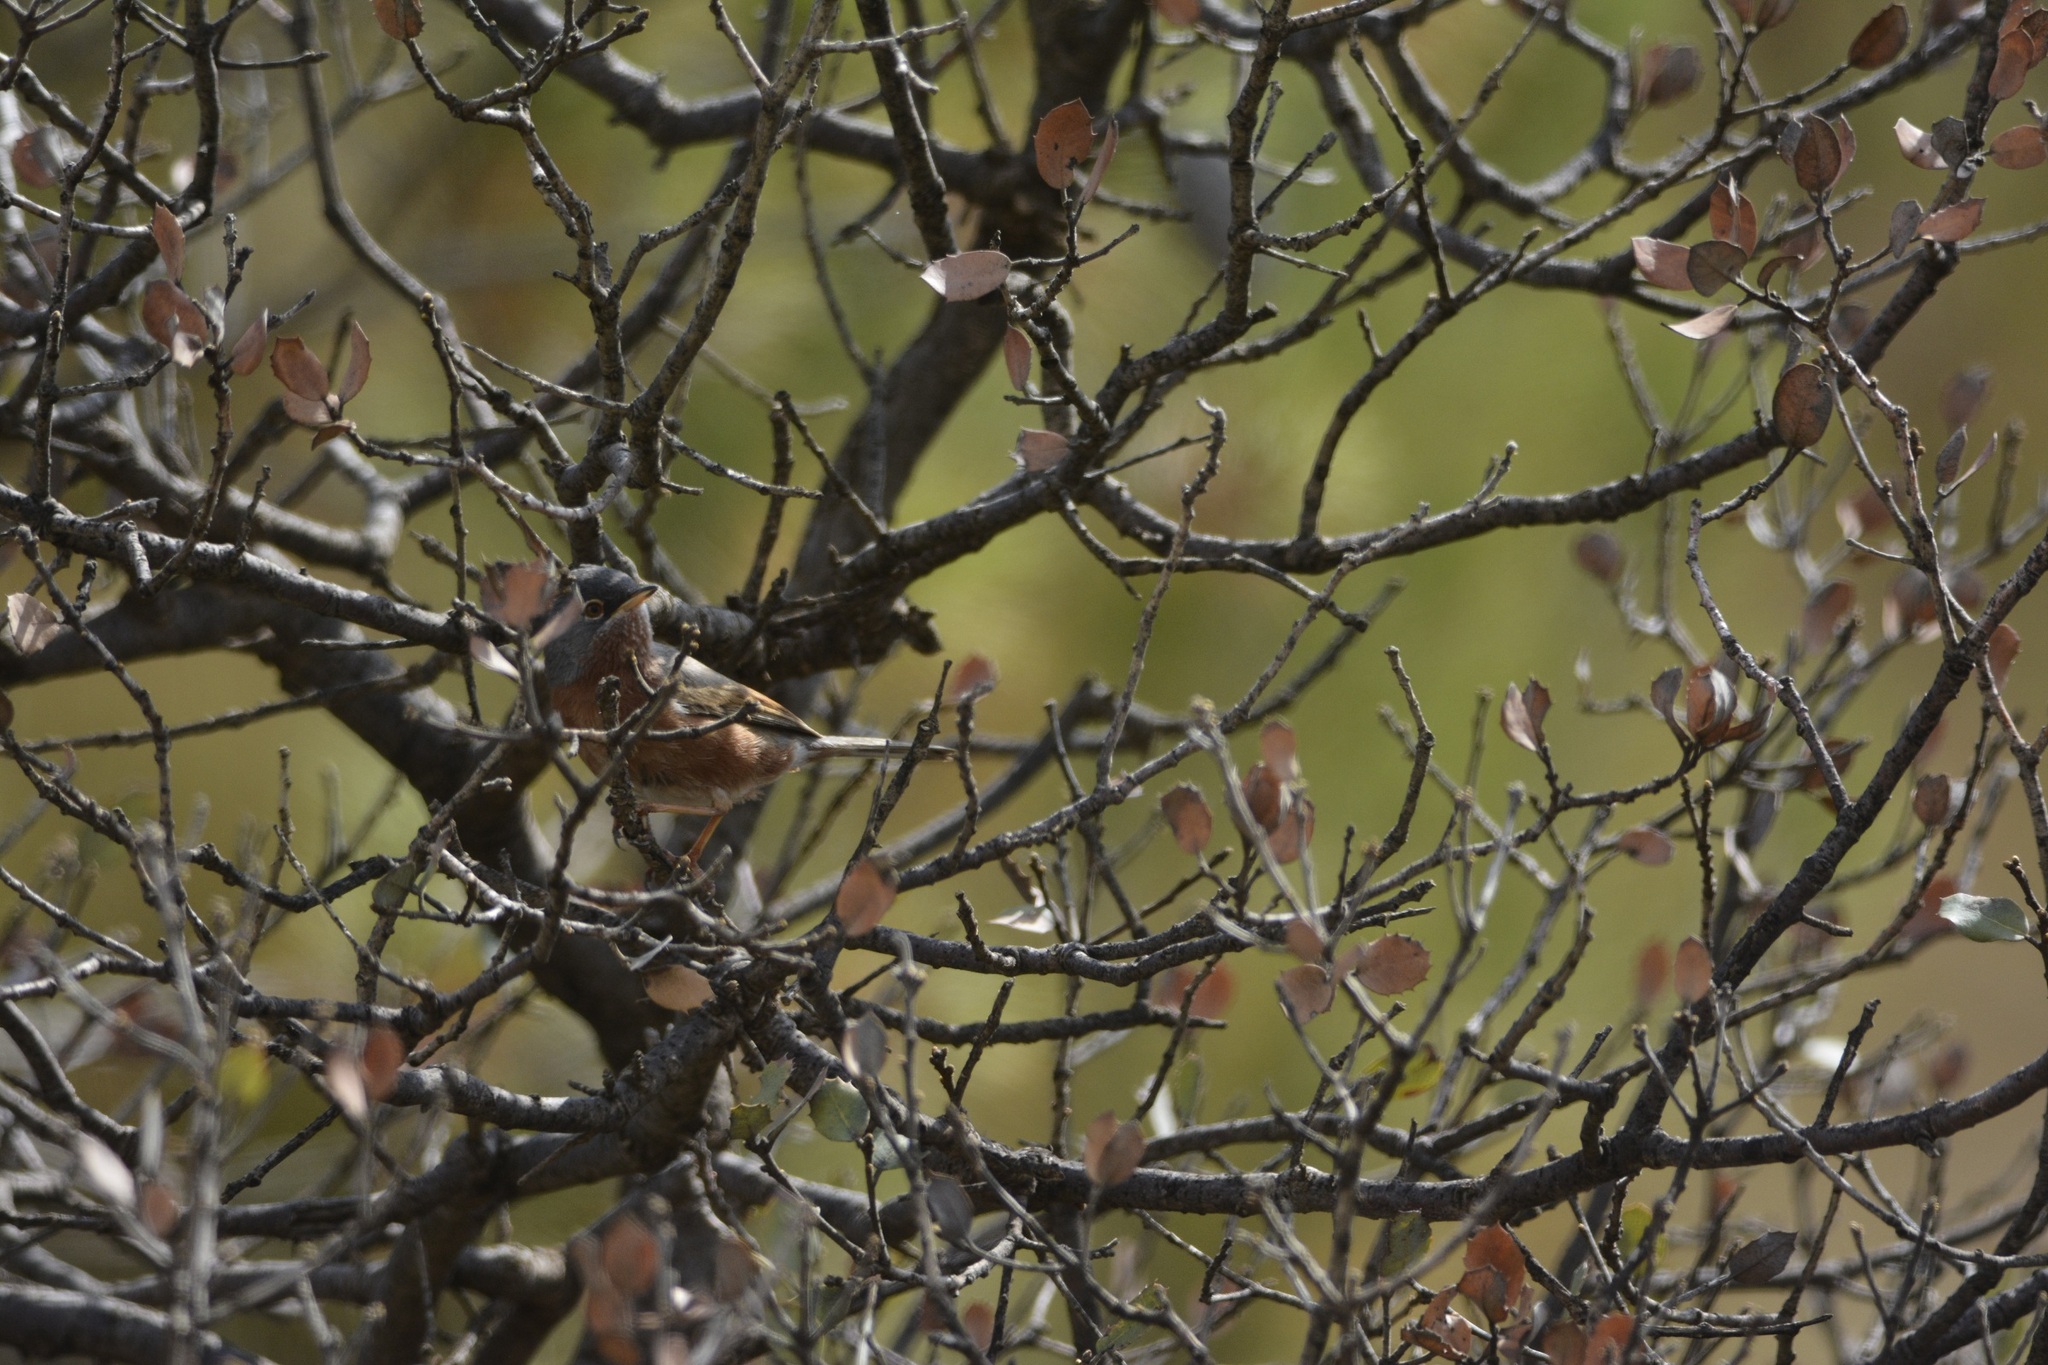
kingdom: Animalia
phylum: Chordata
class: Aves
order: Passeriformes
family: Sylviidae
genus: Sylvia
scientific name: Sylvia deserticola
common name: Tristram's warbler
